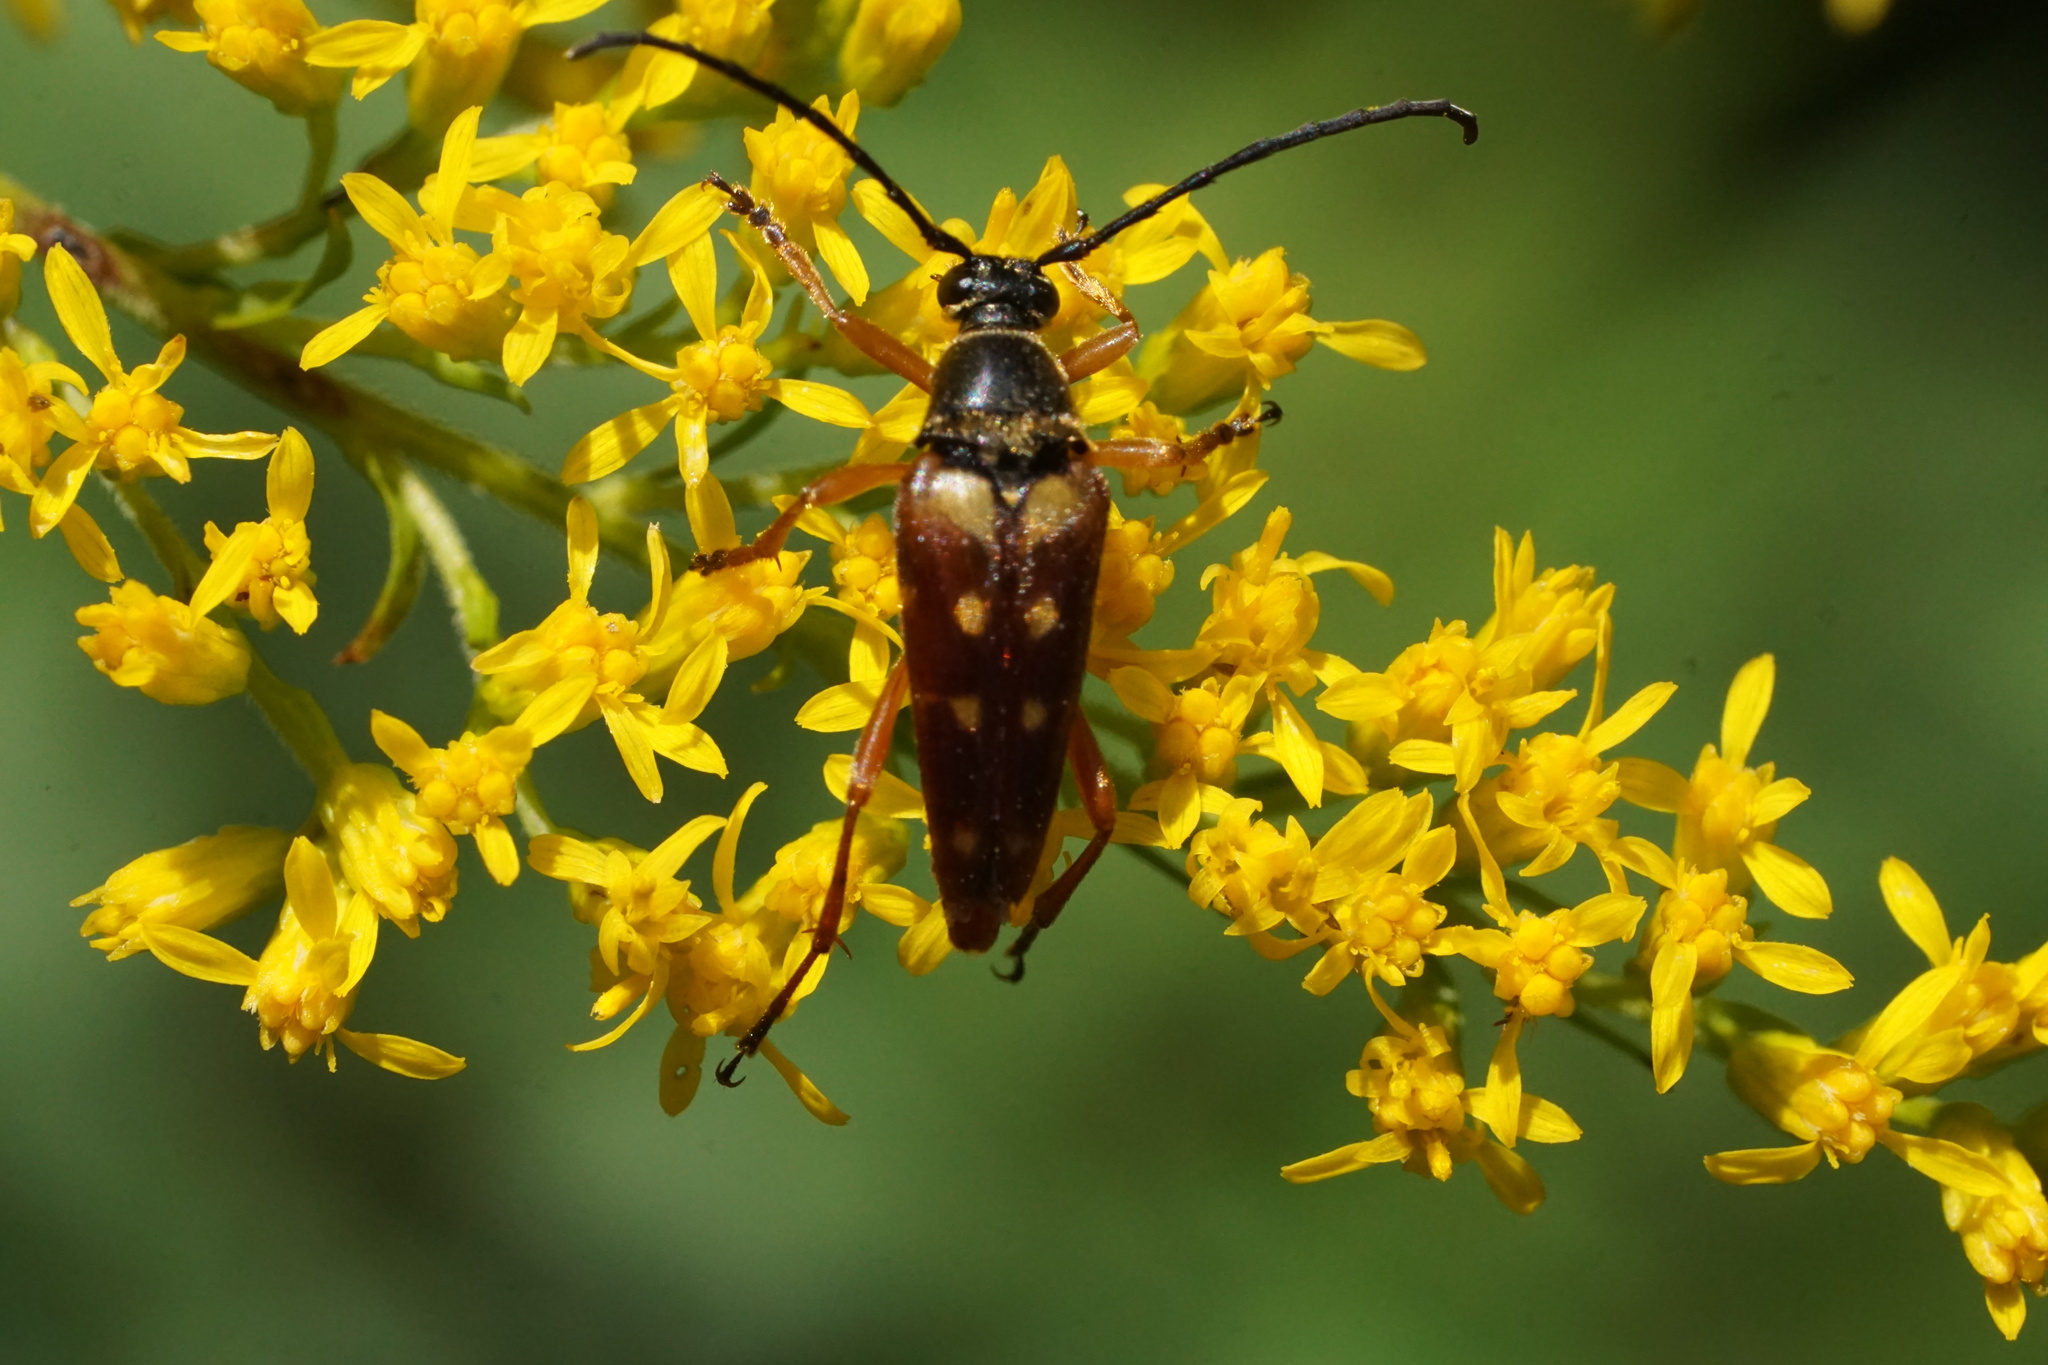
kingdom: Animalia
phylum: Arthropoda
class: Insecta
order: Coleoptera
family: Cerambycidae
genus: Typocerus
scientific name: Typocerus velutinus
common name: Banded longhorn beetle
